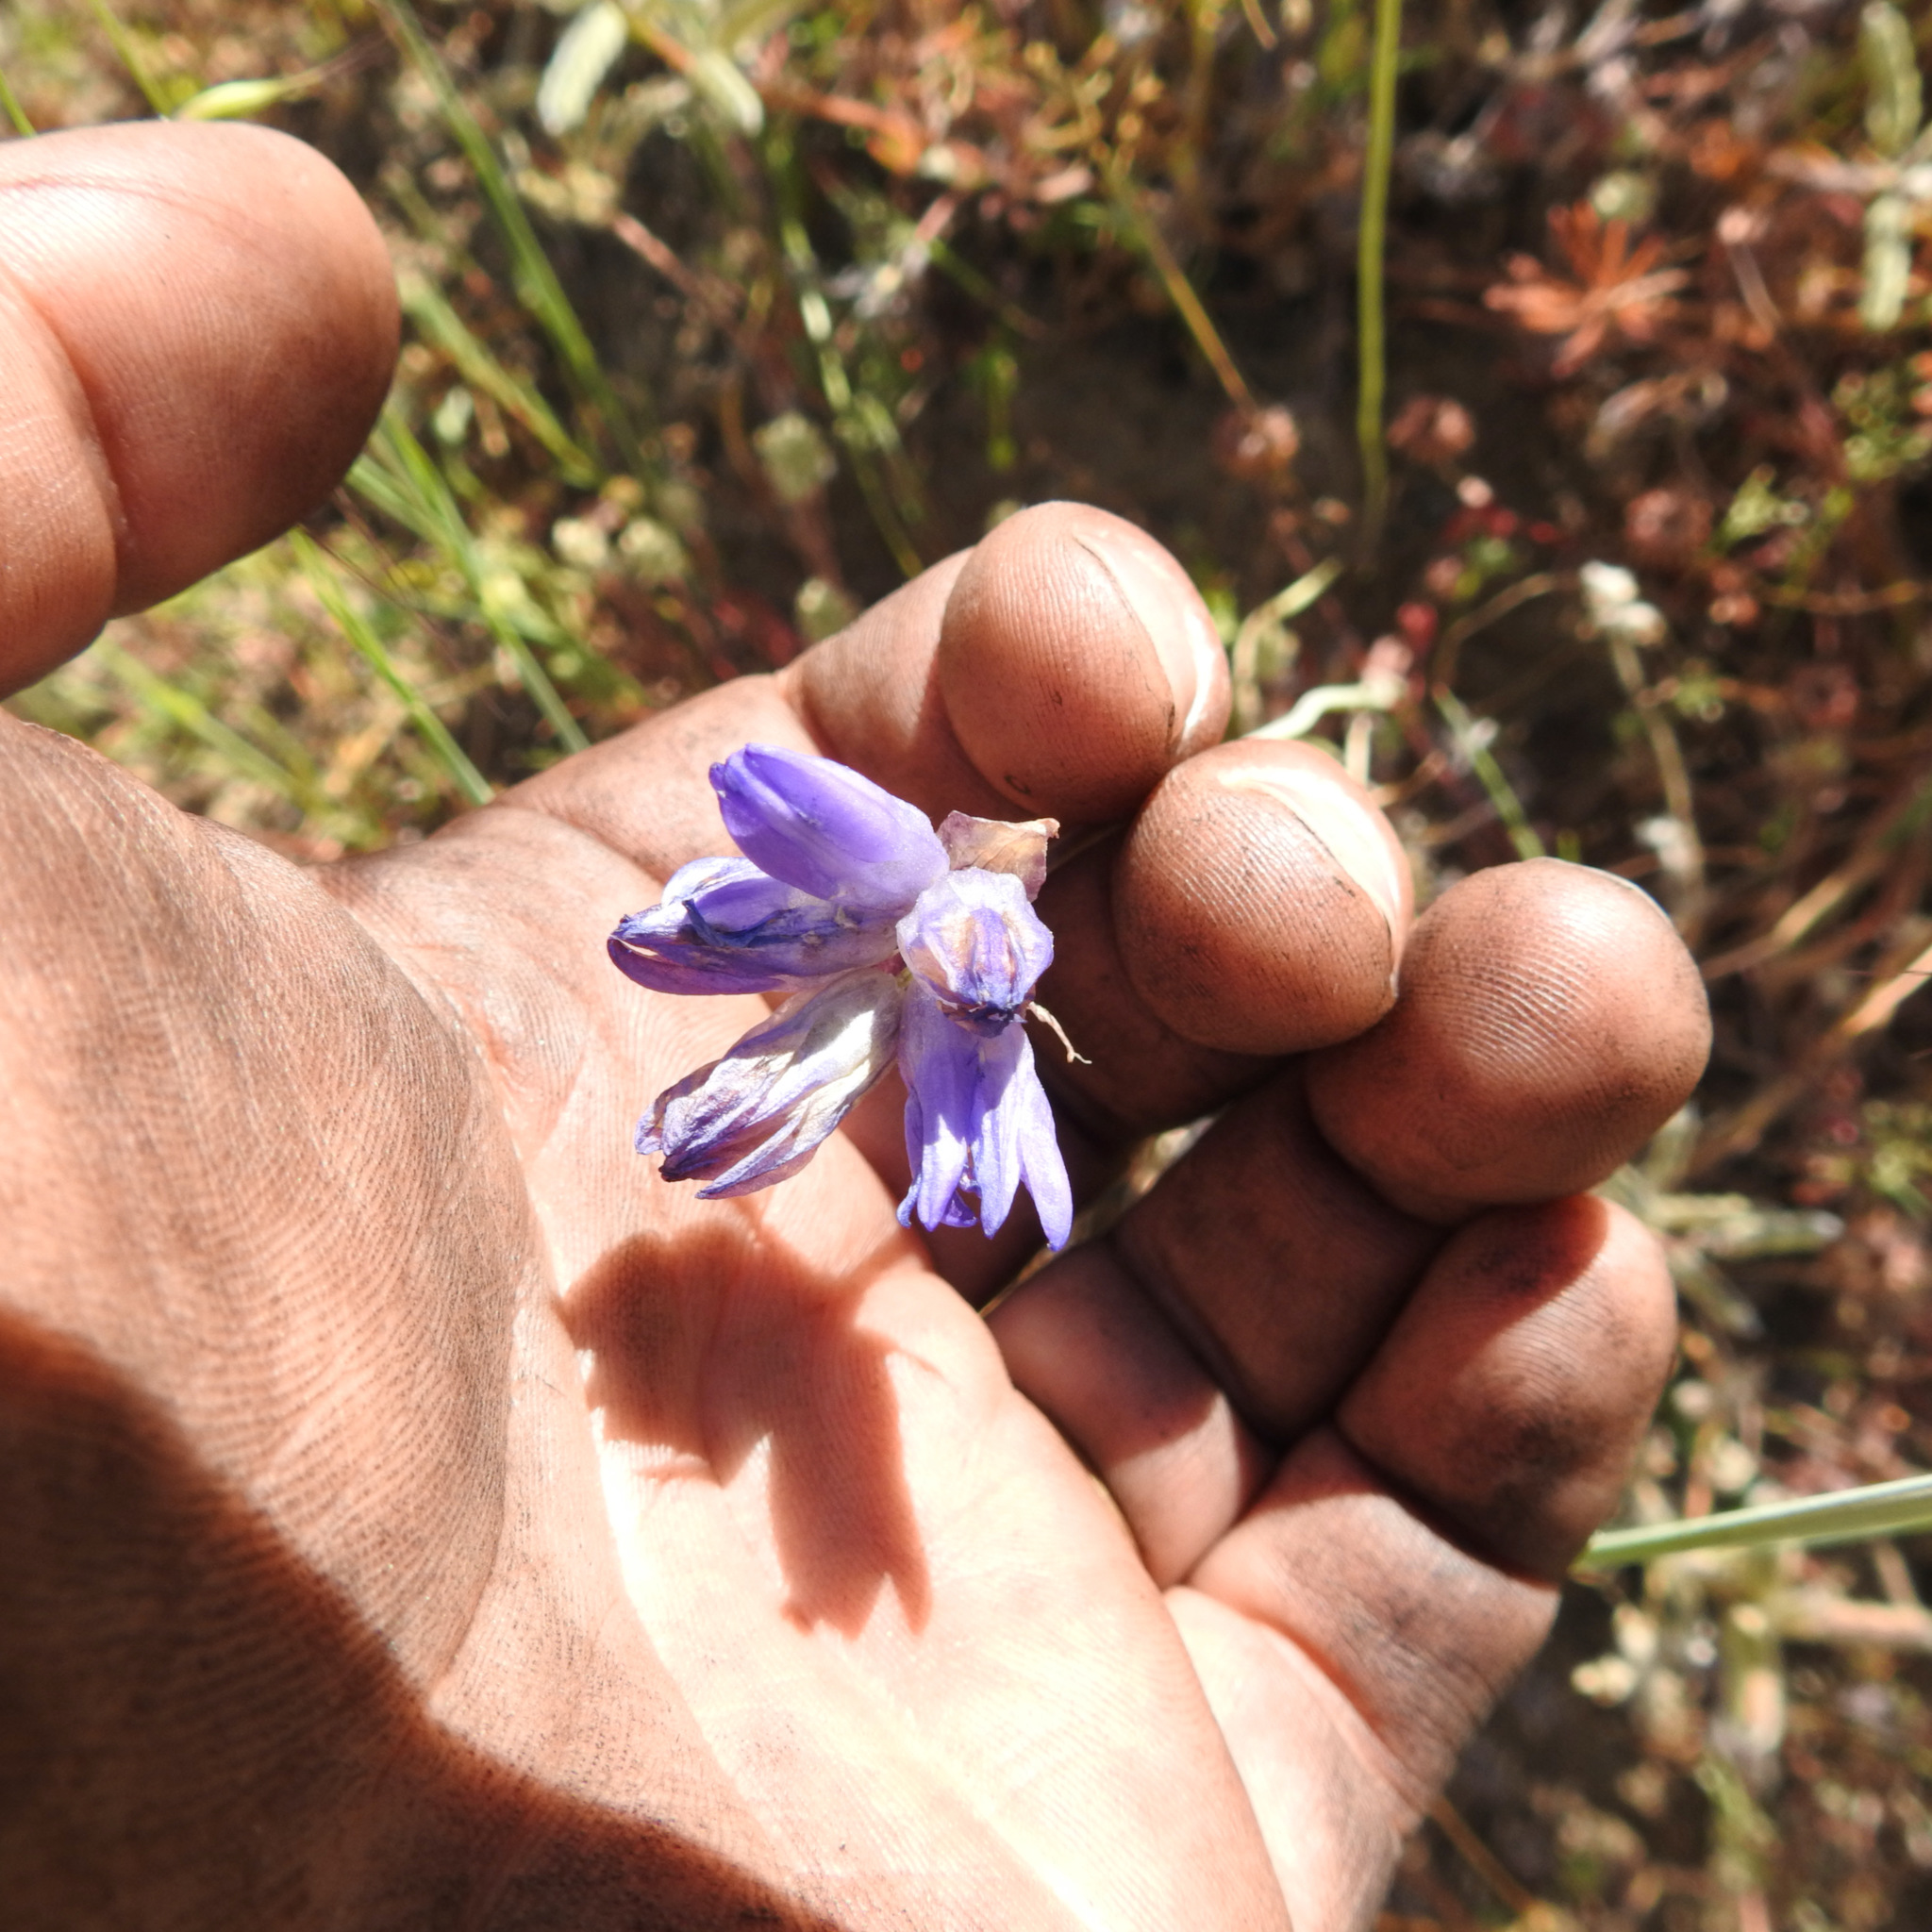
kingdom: Plantae
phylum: Tracheophyta
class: Liliopsida
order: Asparagales
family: Asparagaceae
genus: Dipterostemon
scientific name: Dipterostemon capitatus
